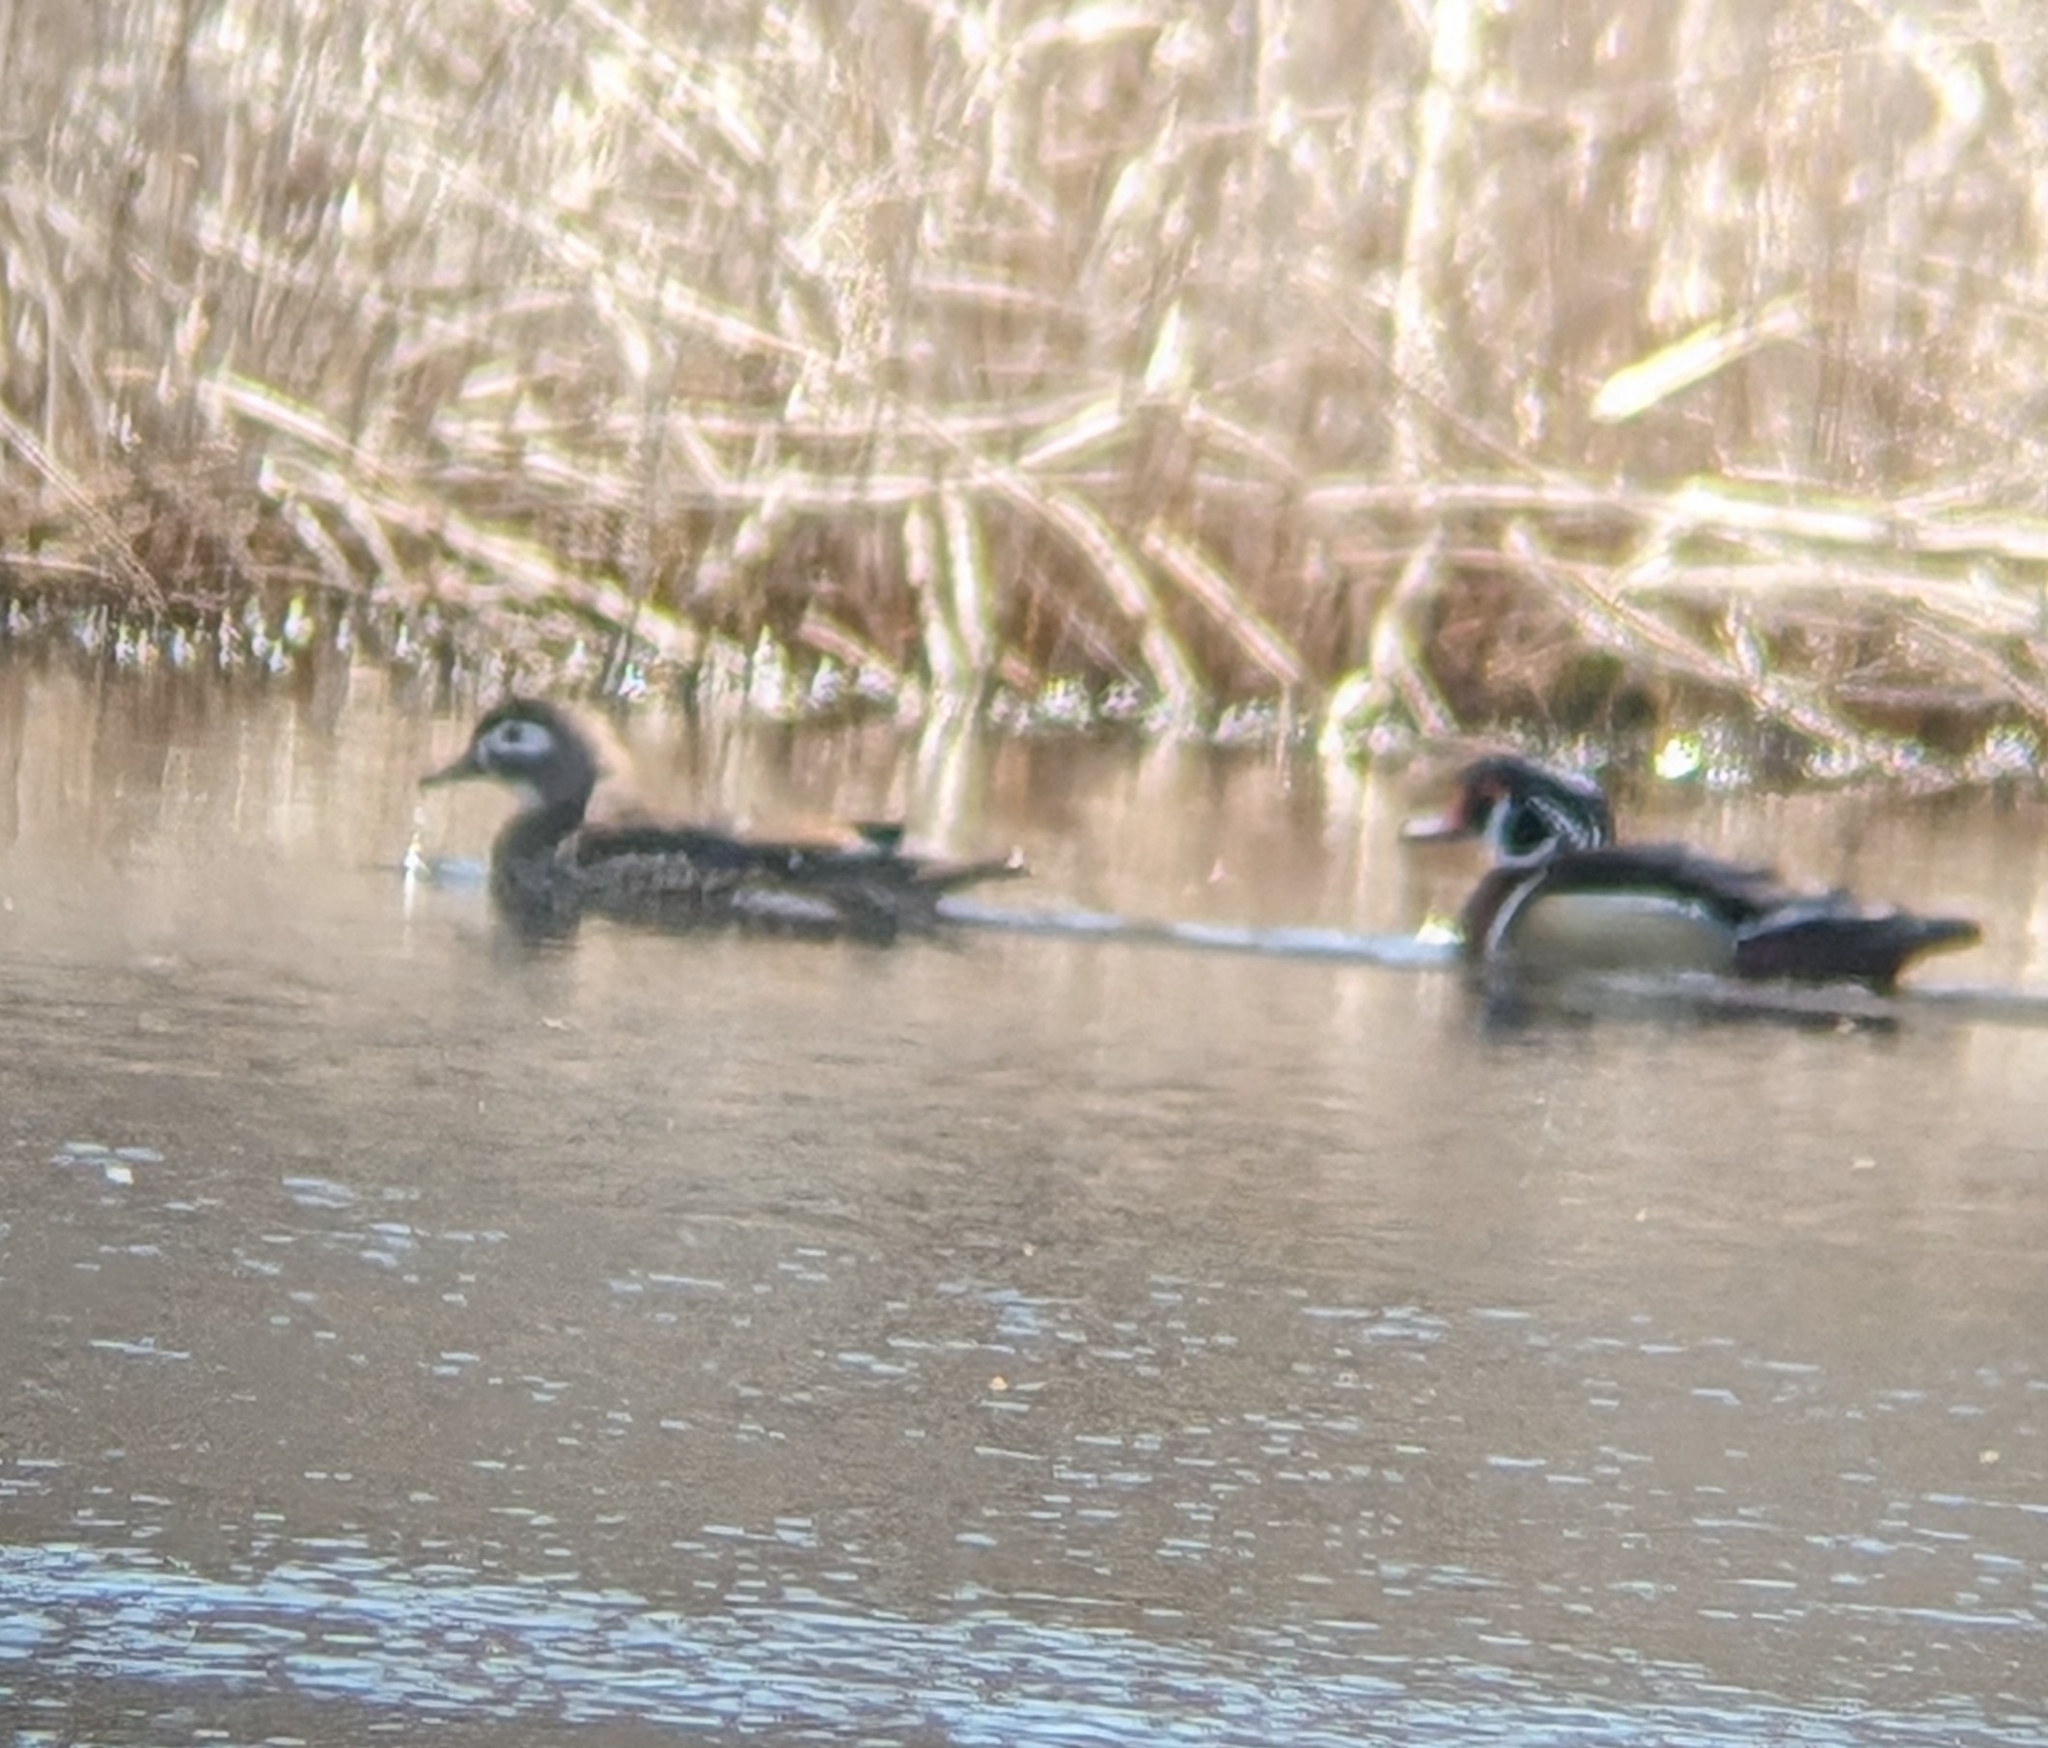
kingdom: Animalia
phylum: Chordata
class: Aves
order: Anseriformes
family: Anatidae
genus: Aix
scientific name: Aix sponsa
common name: Wood duck
